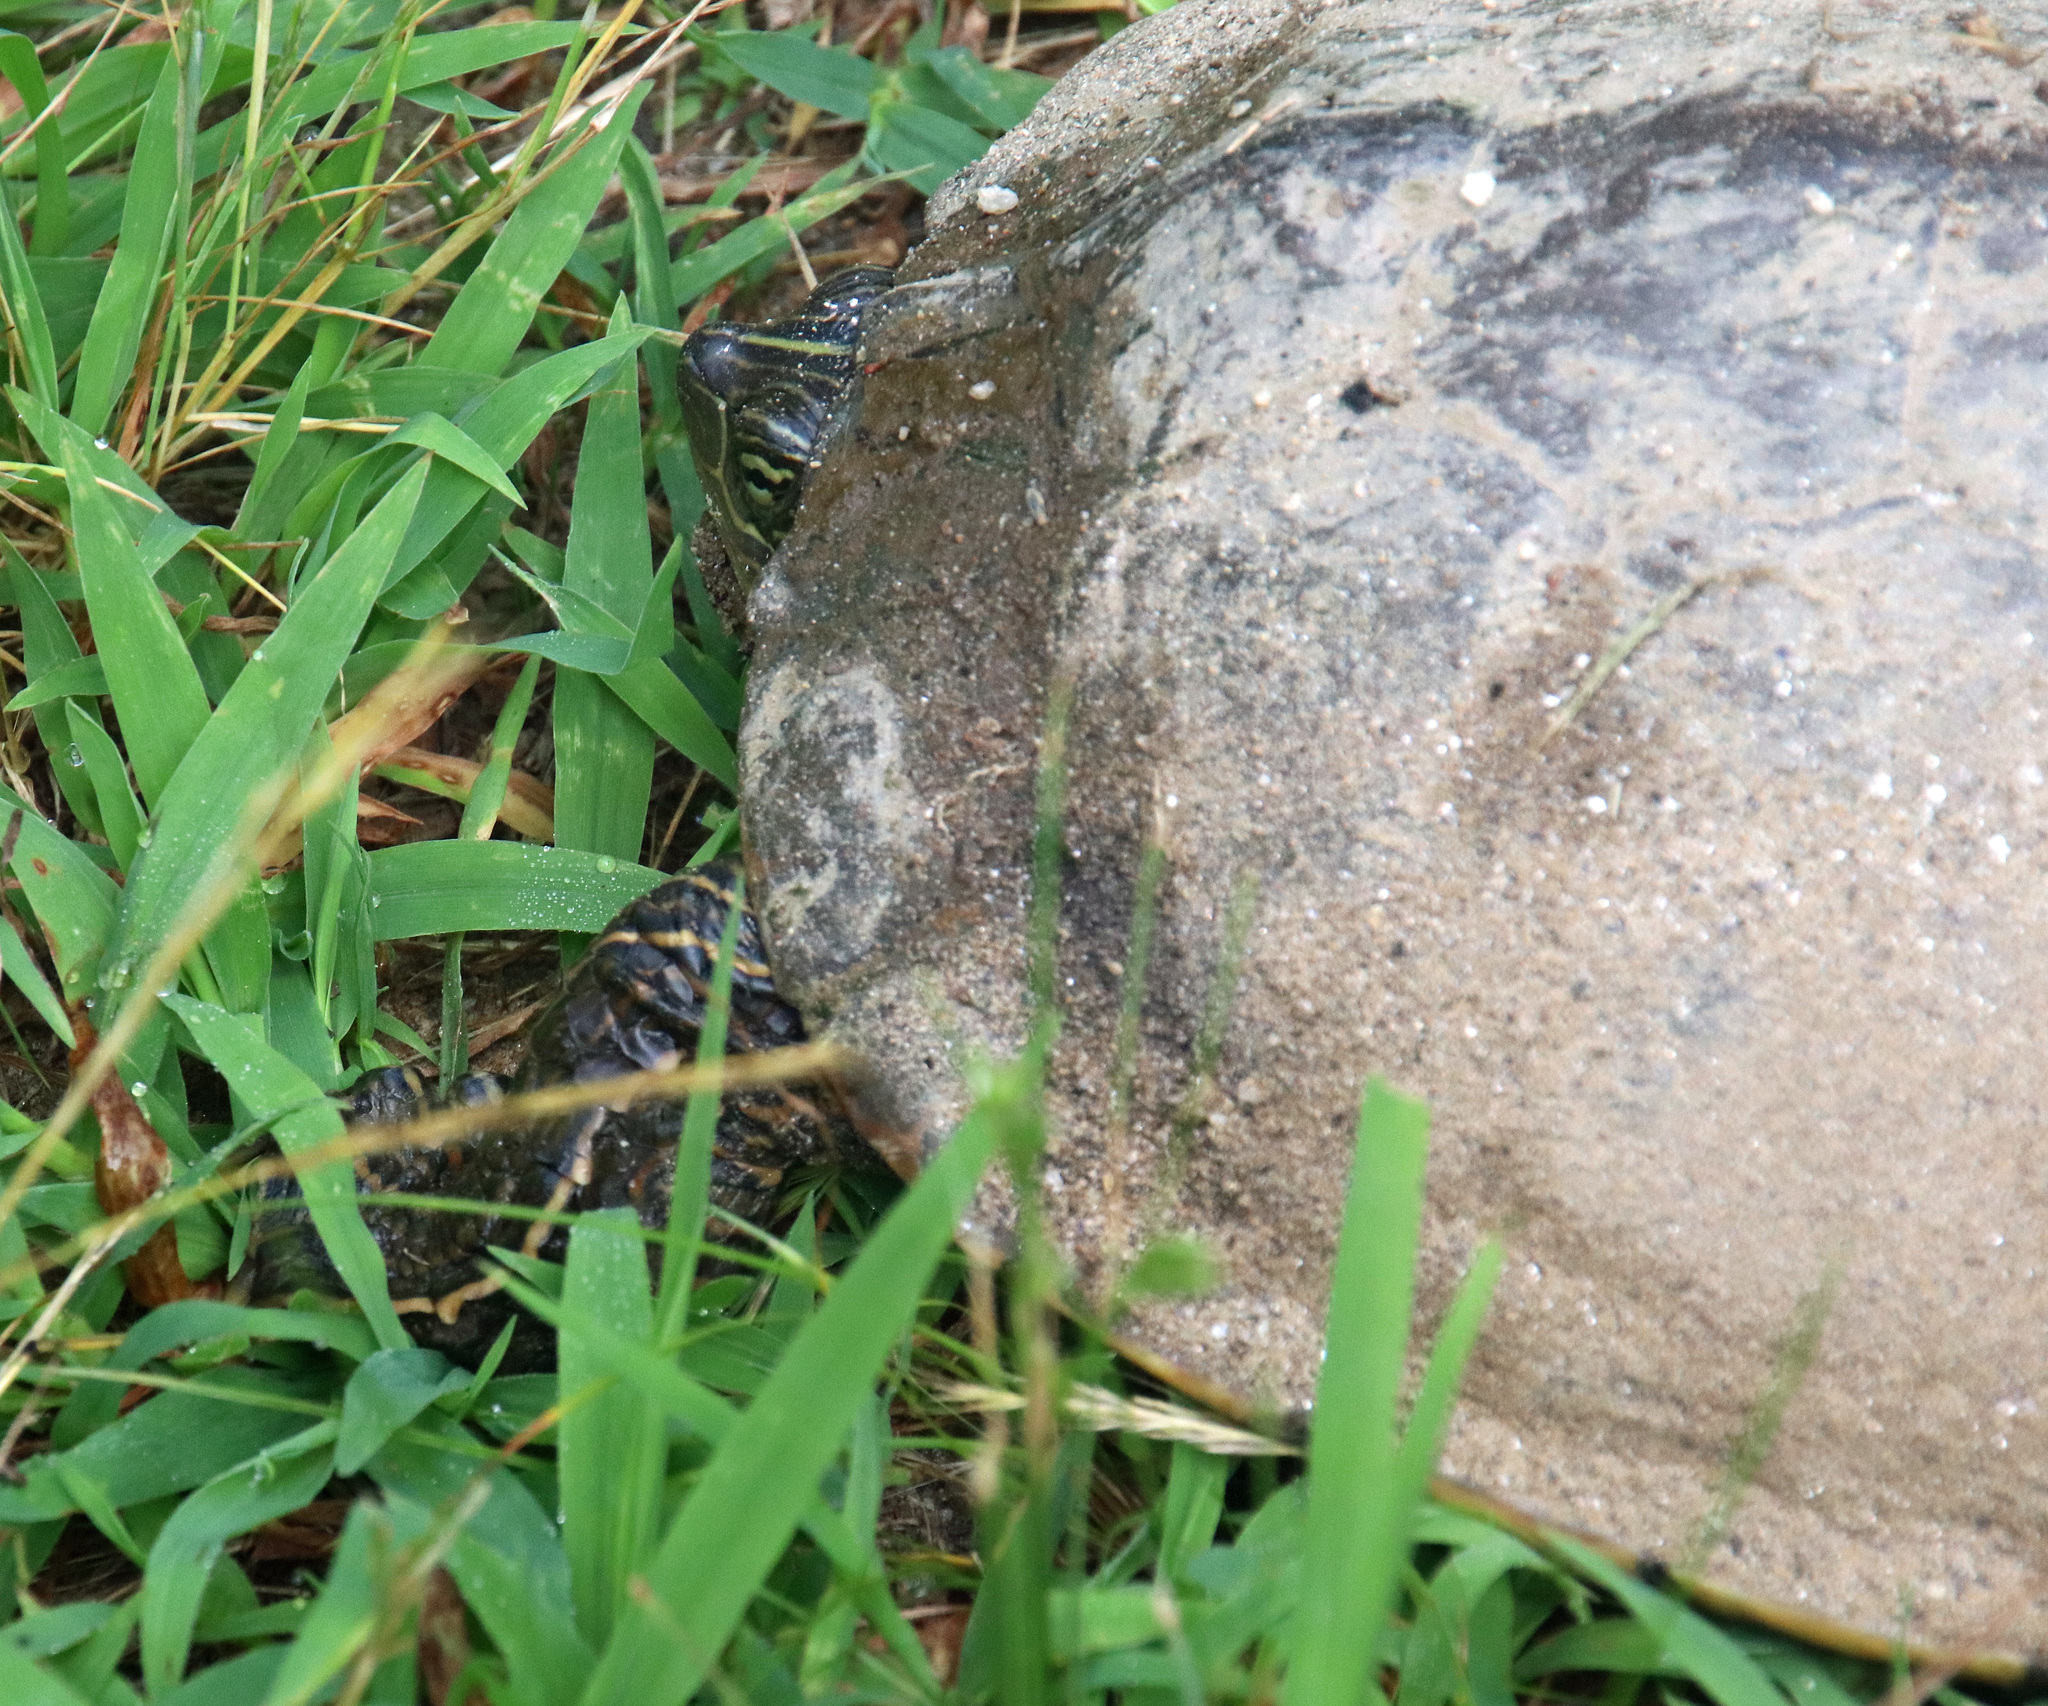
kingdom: Animalia
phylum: Chordata
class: Testudines
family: Emydidae
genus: Graptemys
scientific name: Graptemys geographica
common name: Common map turtle
